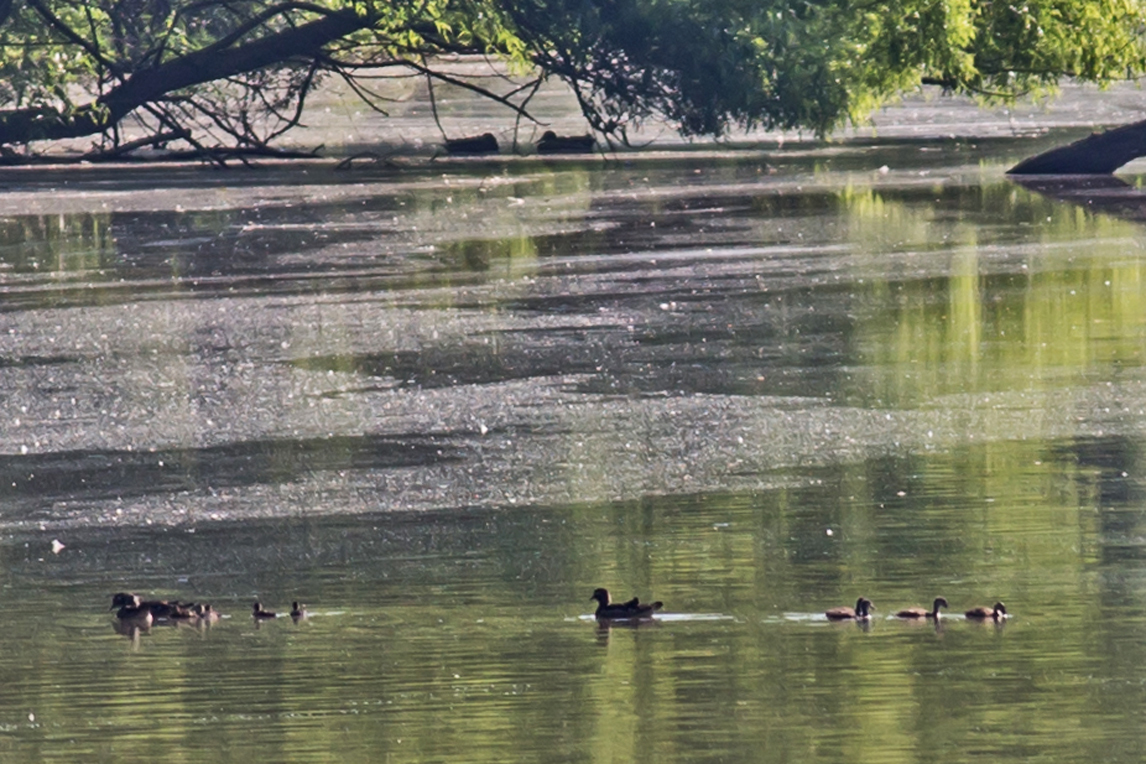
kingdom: Animalia
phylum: Chordata
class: Aves
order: Anseriformes
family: Anatidae
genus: Aix
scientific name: Aix sponsa
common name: Wood duck
